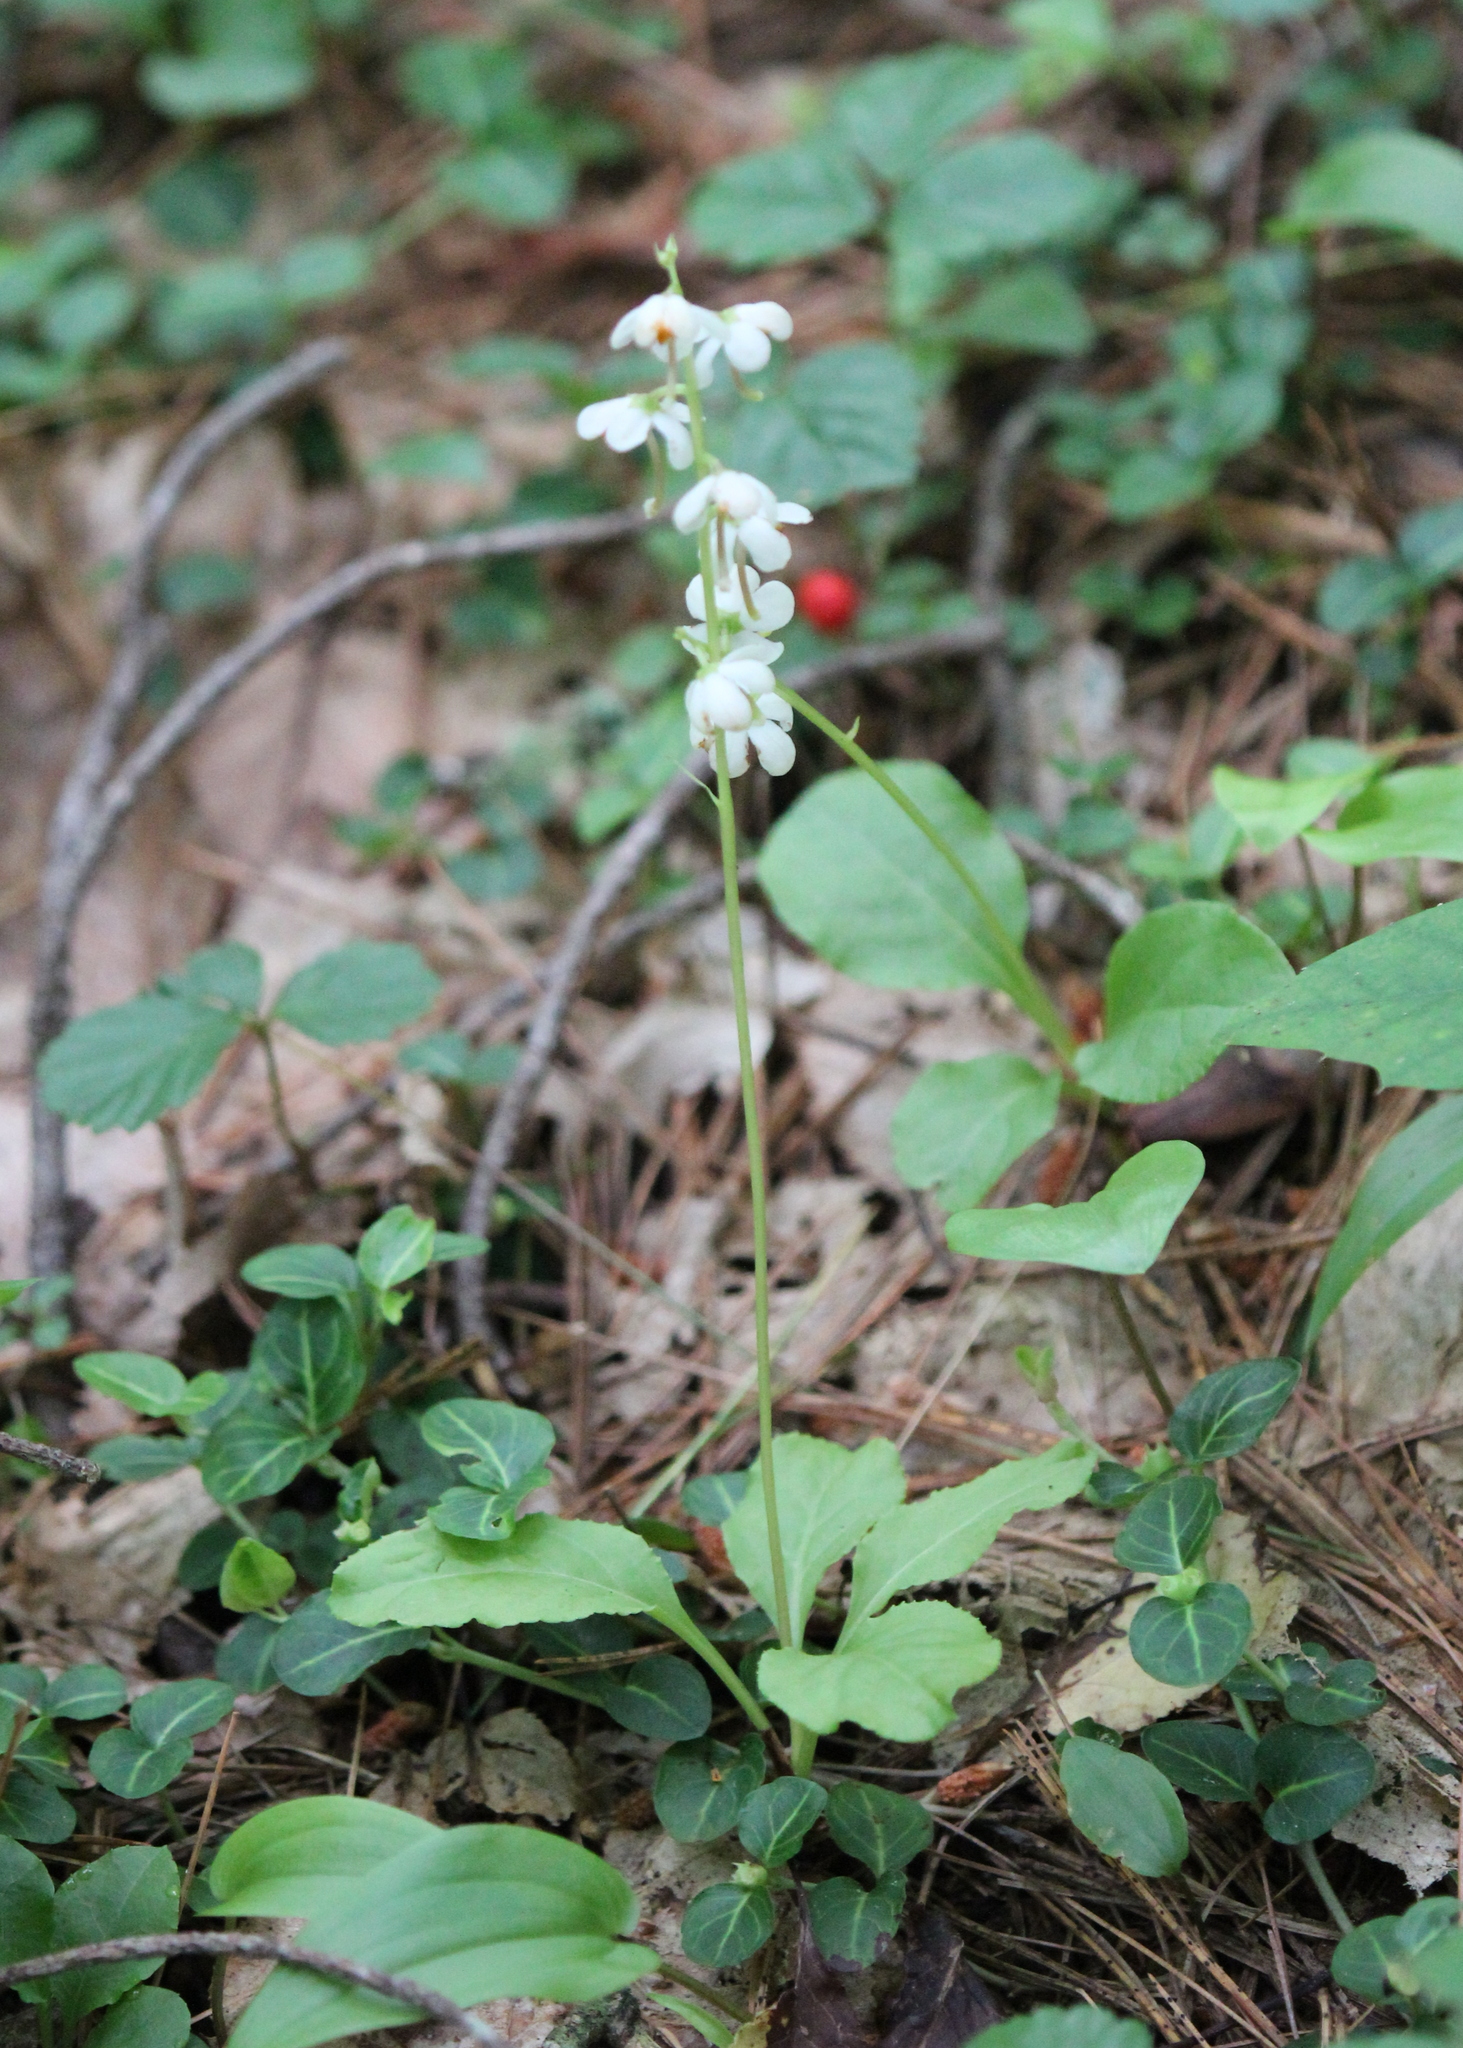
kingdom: Plantae
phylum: Tracheophyta
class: Magnoliopsida
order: Ericales
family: Ericaceae
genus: Pyrola
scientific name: Pyrola elliptica
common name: Shinleaf
